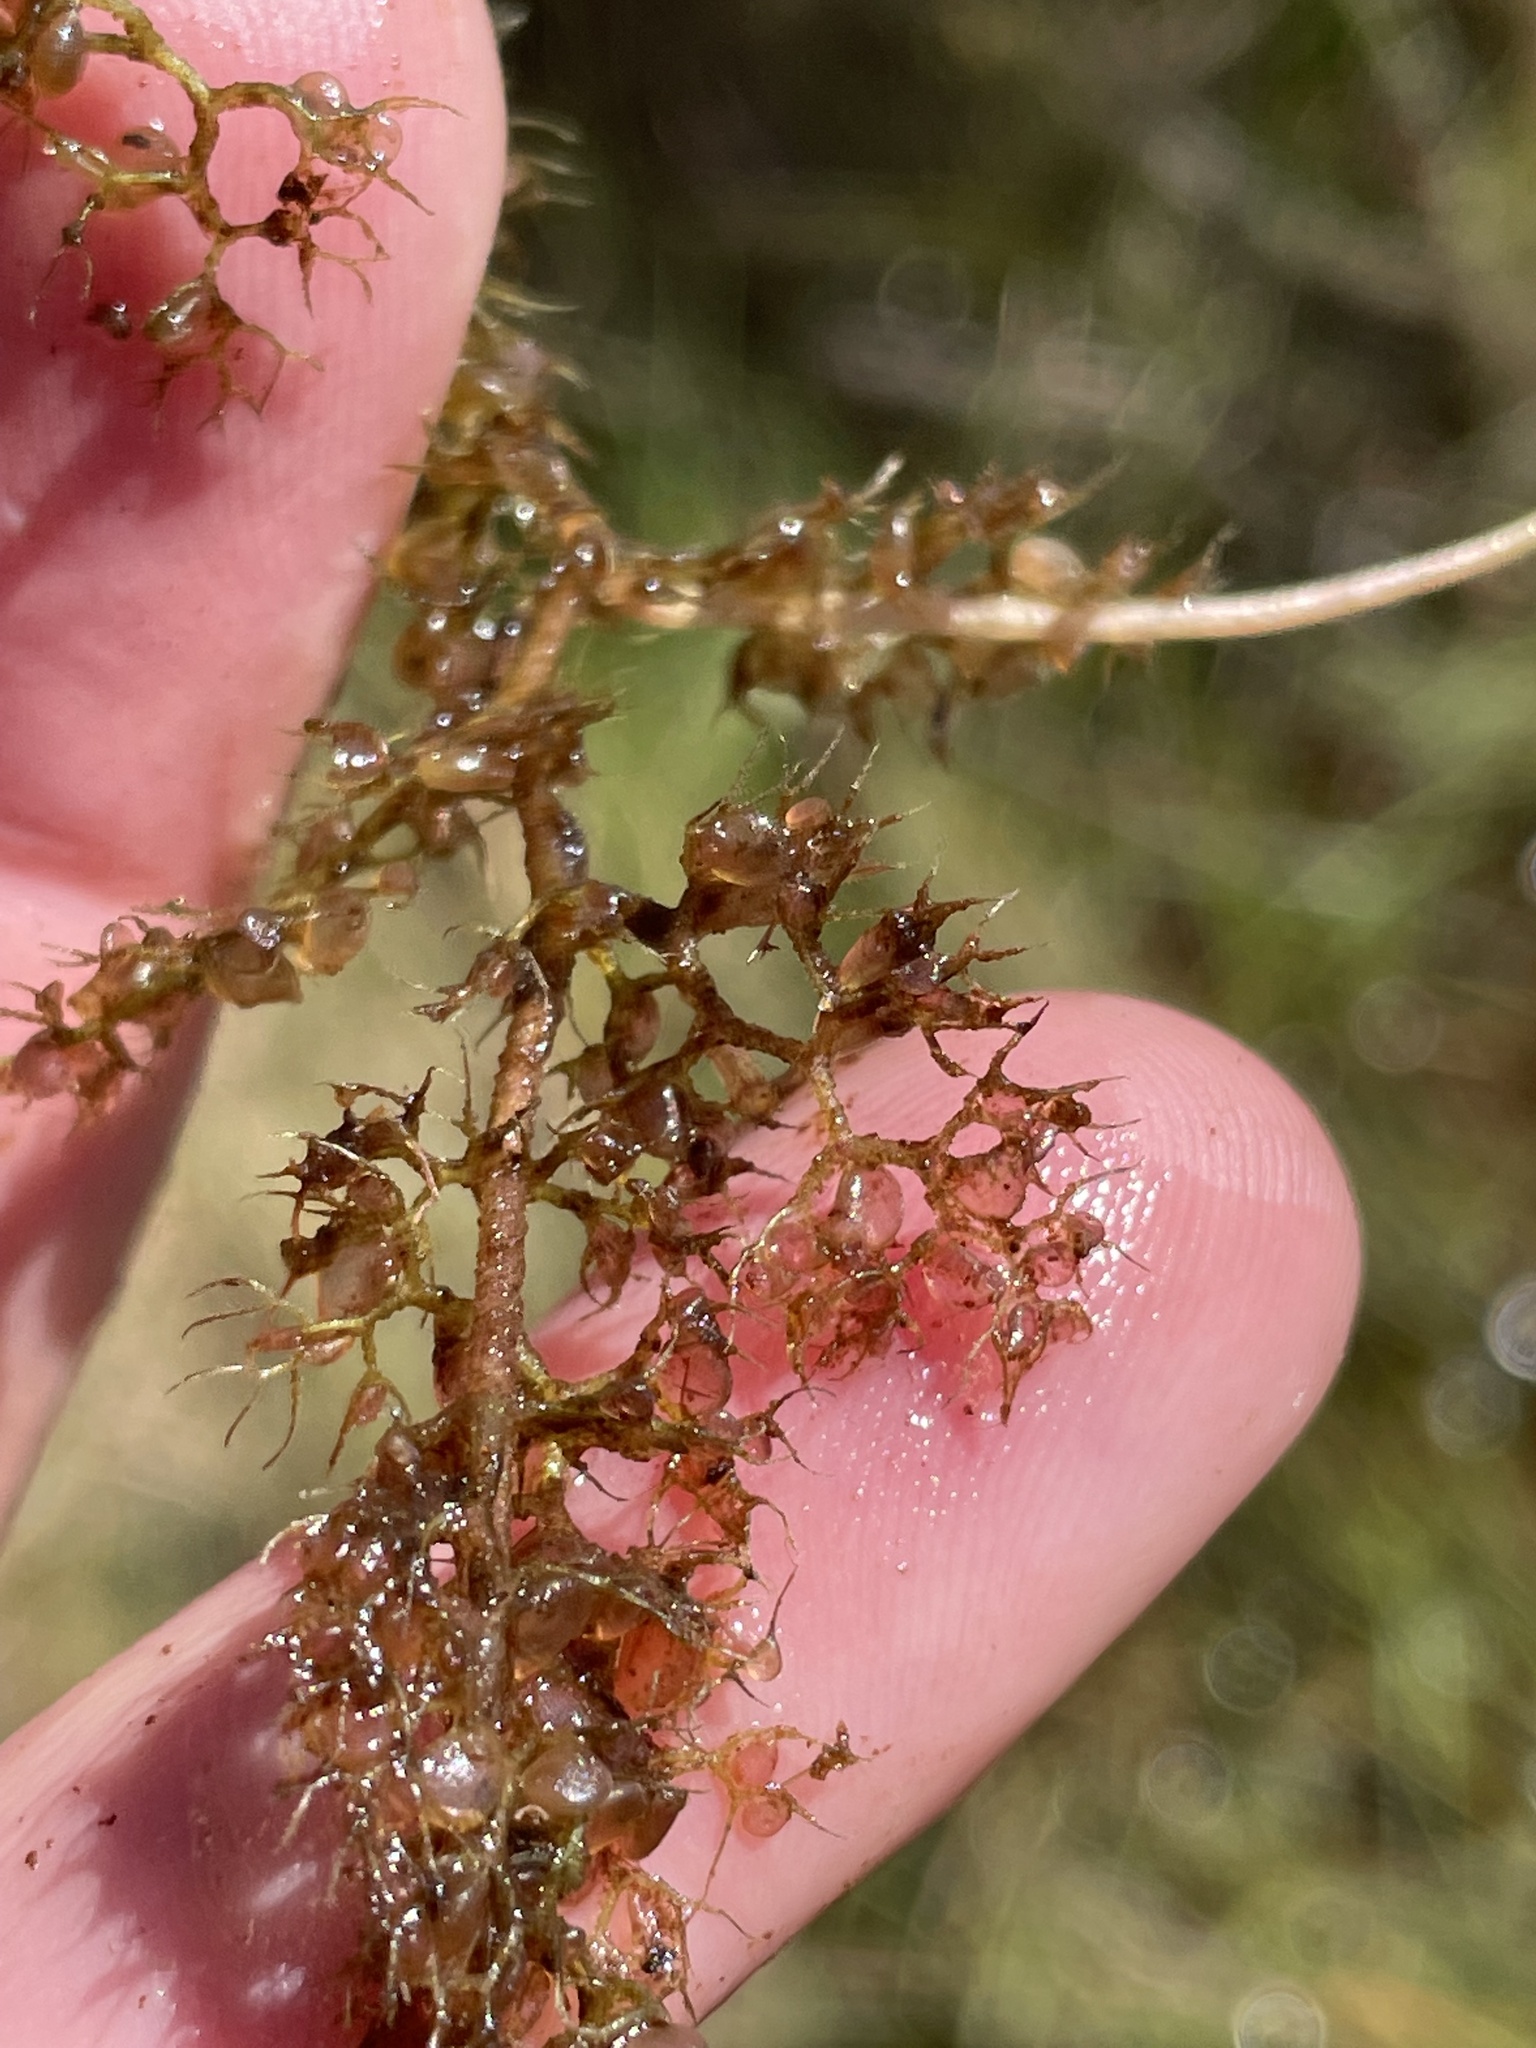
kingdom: Plantae
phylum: Tracheophyta
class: Magnoliopsida
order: Lamiales
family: Lentibulariaceae
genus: Utricularia
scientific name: Utricularia reflexa
